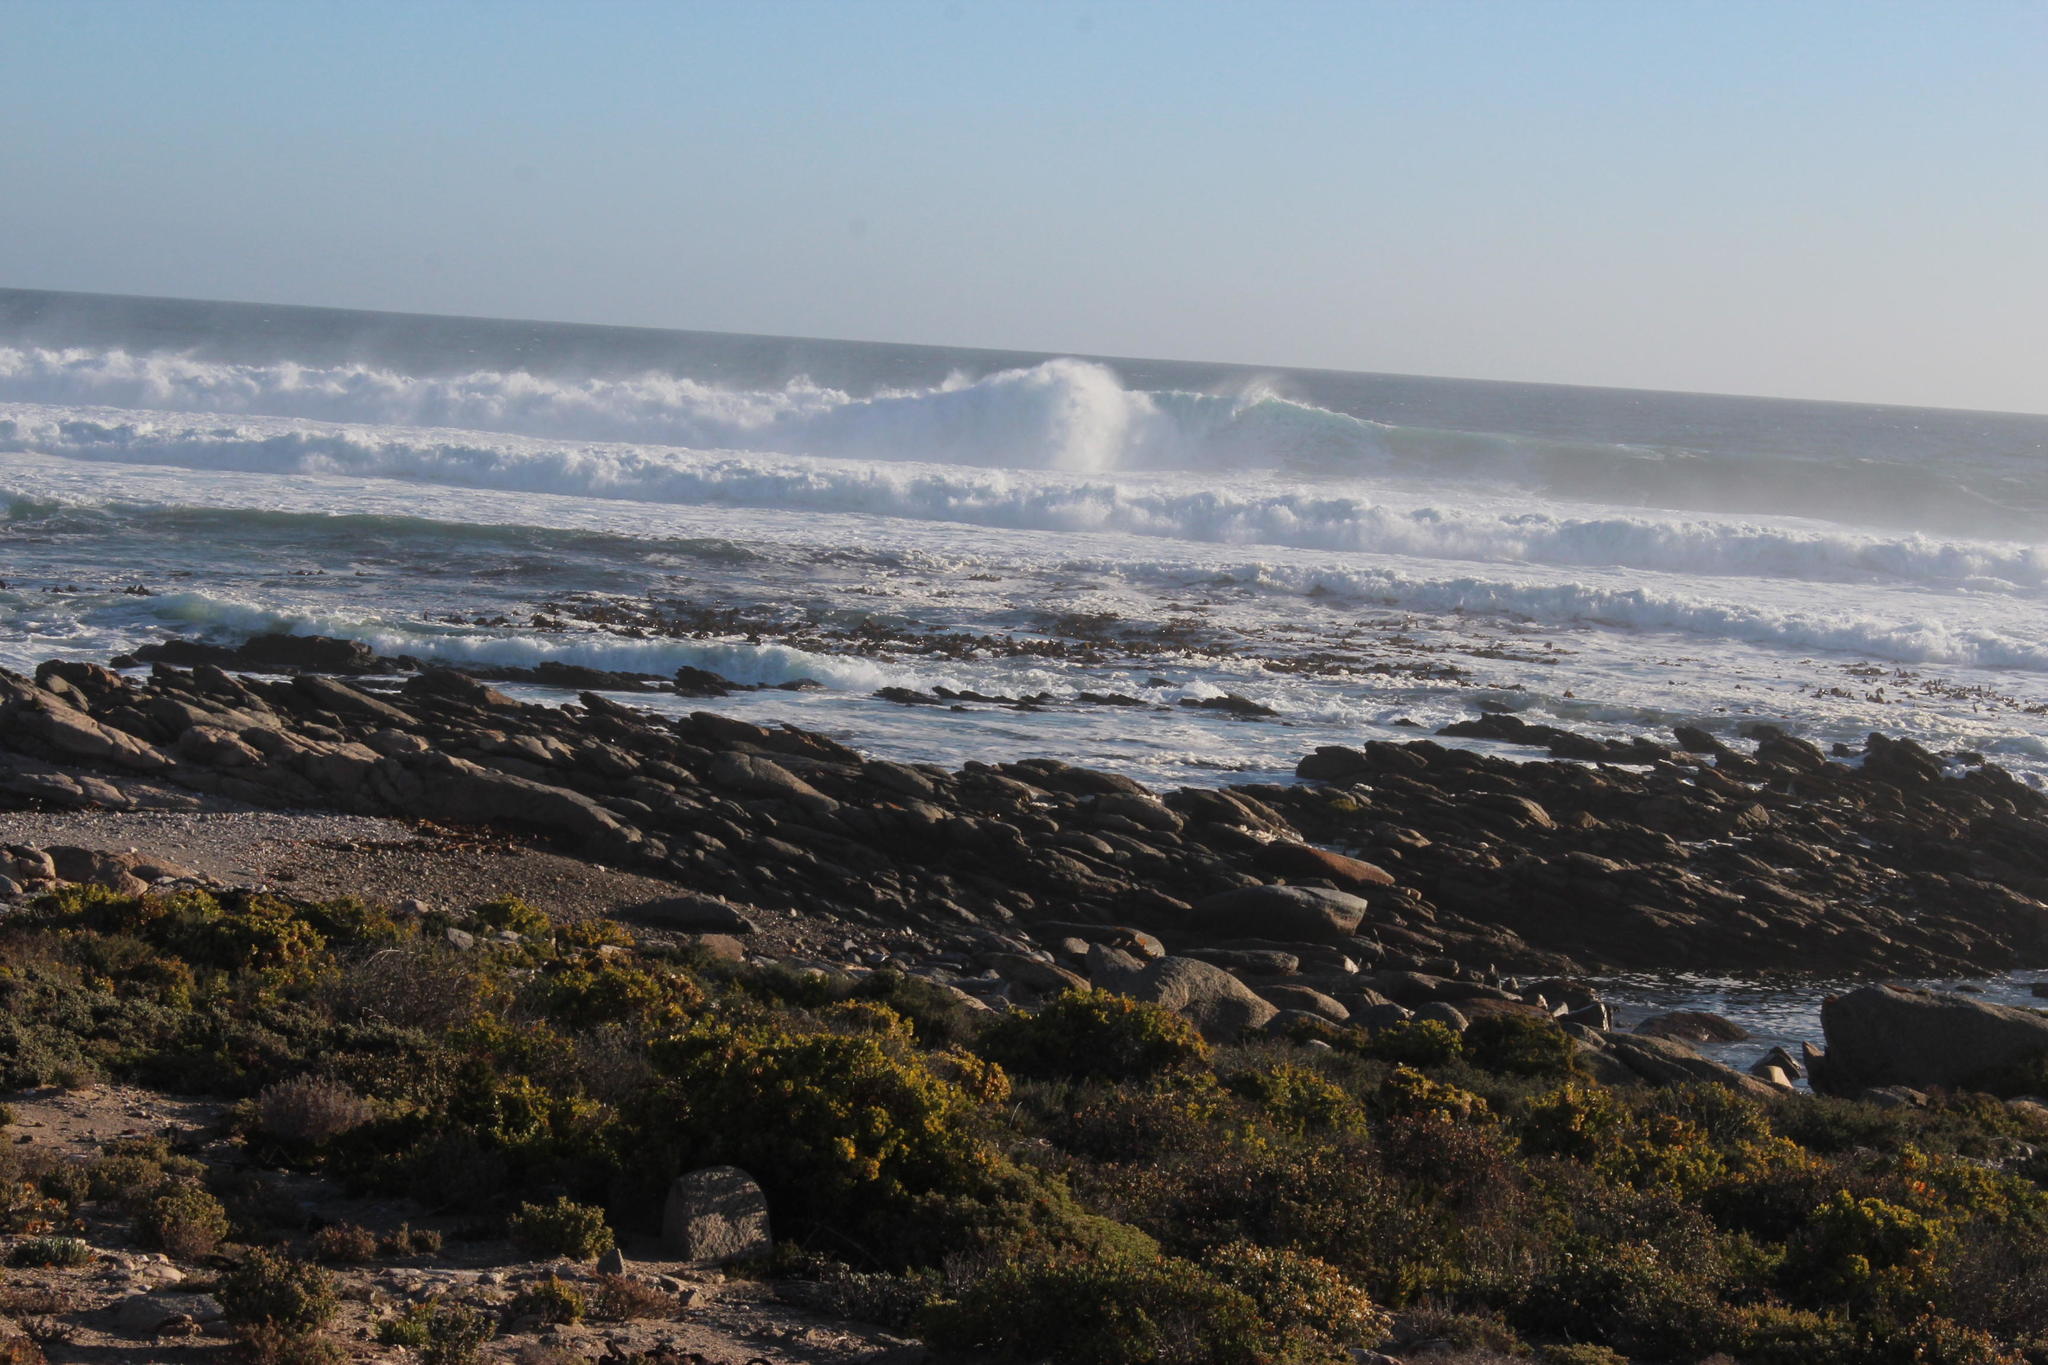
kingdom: Chromista
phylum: Ochrophyta
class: Phaeophyceae
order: Laminariales
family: Lessoniaceae
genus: Ecklonia
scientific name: Ecklonia
